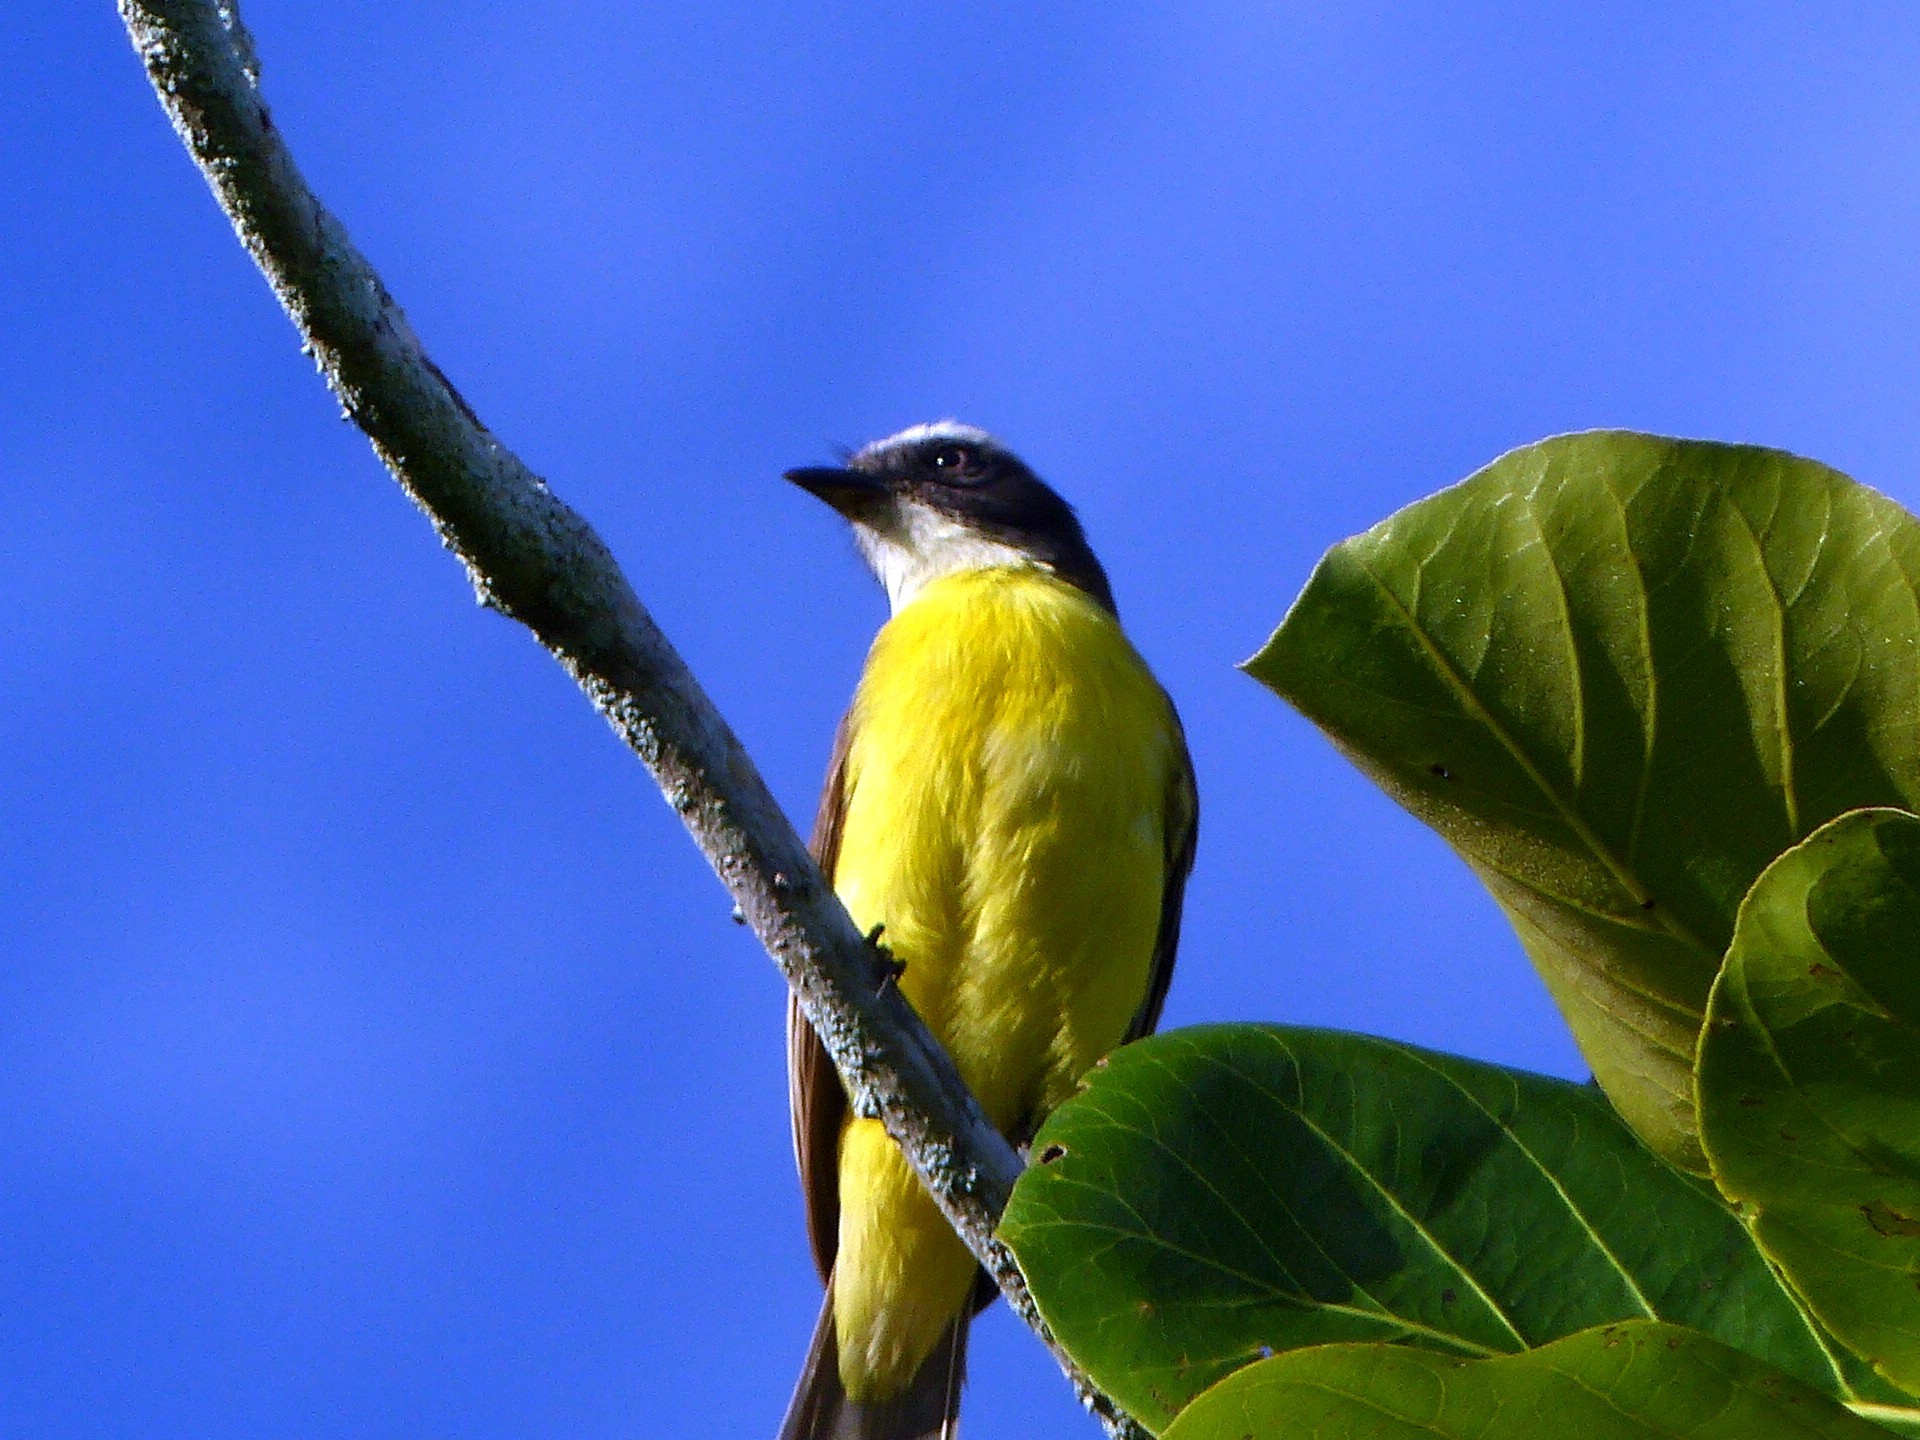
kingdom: Animalia
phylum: Chordata
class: Aves
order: Passeriformes
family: Tyrannidae
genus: Myiozetetes
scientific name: Myiozetetes similis
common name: Social flycatcher
